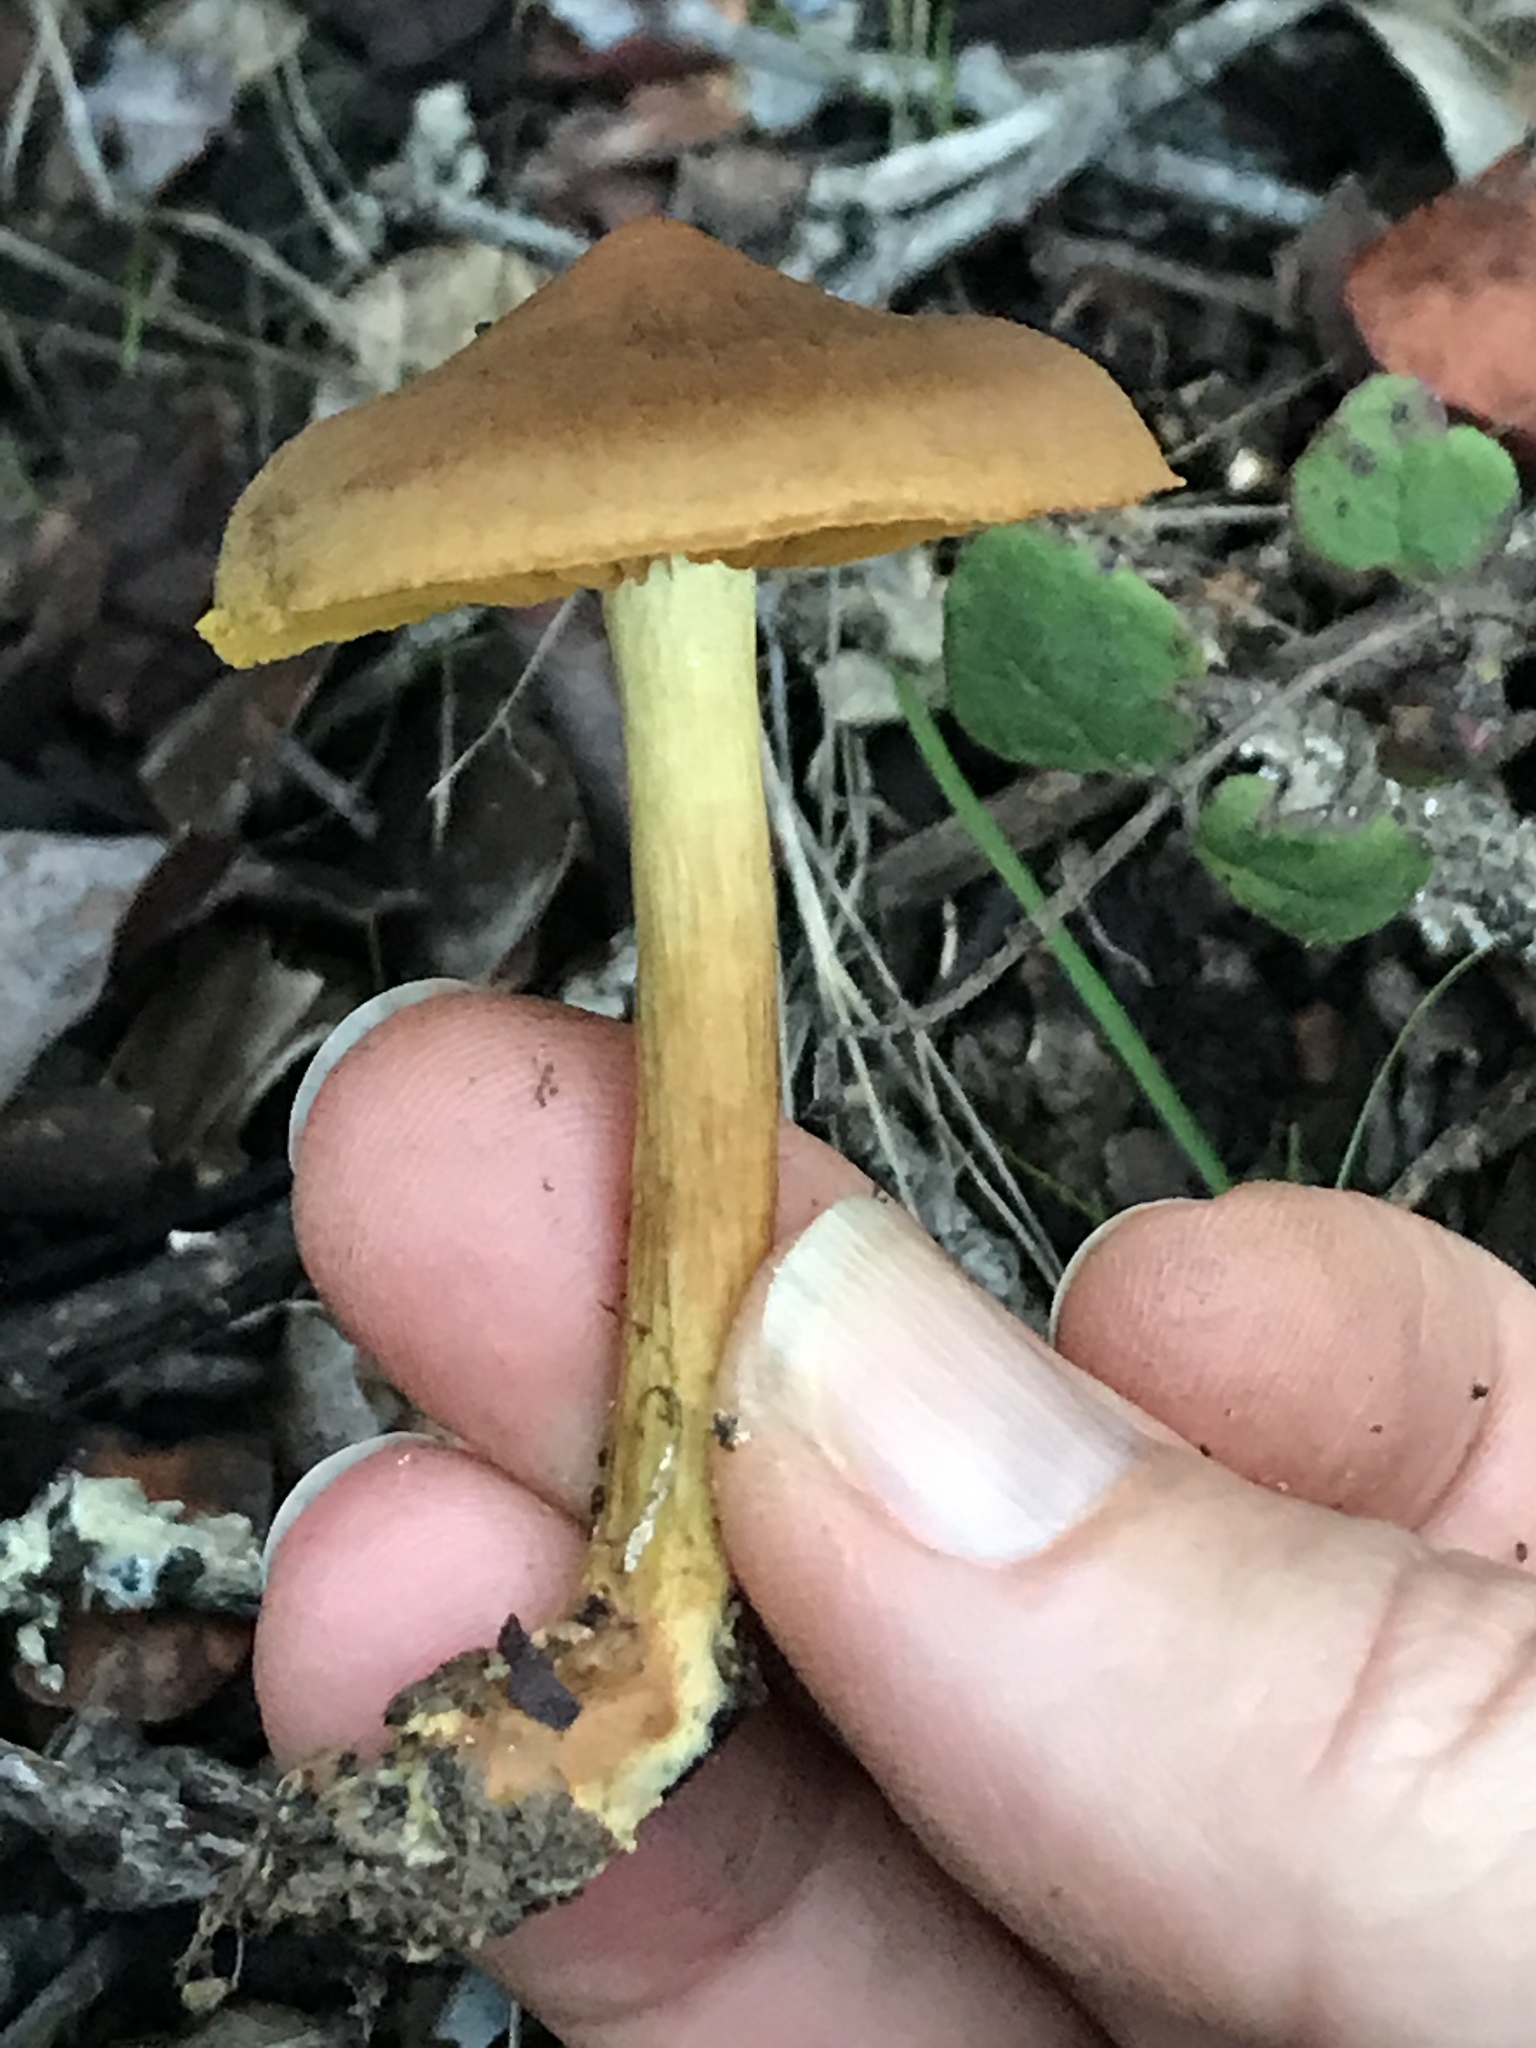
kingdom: Fungi
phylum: Basidiomycota
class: Agaricomycetes
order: Agaricales
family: Cortinariaceae
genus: Cortinarius
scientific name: Cortinarius thiersii
